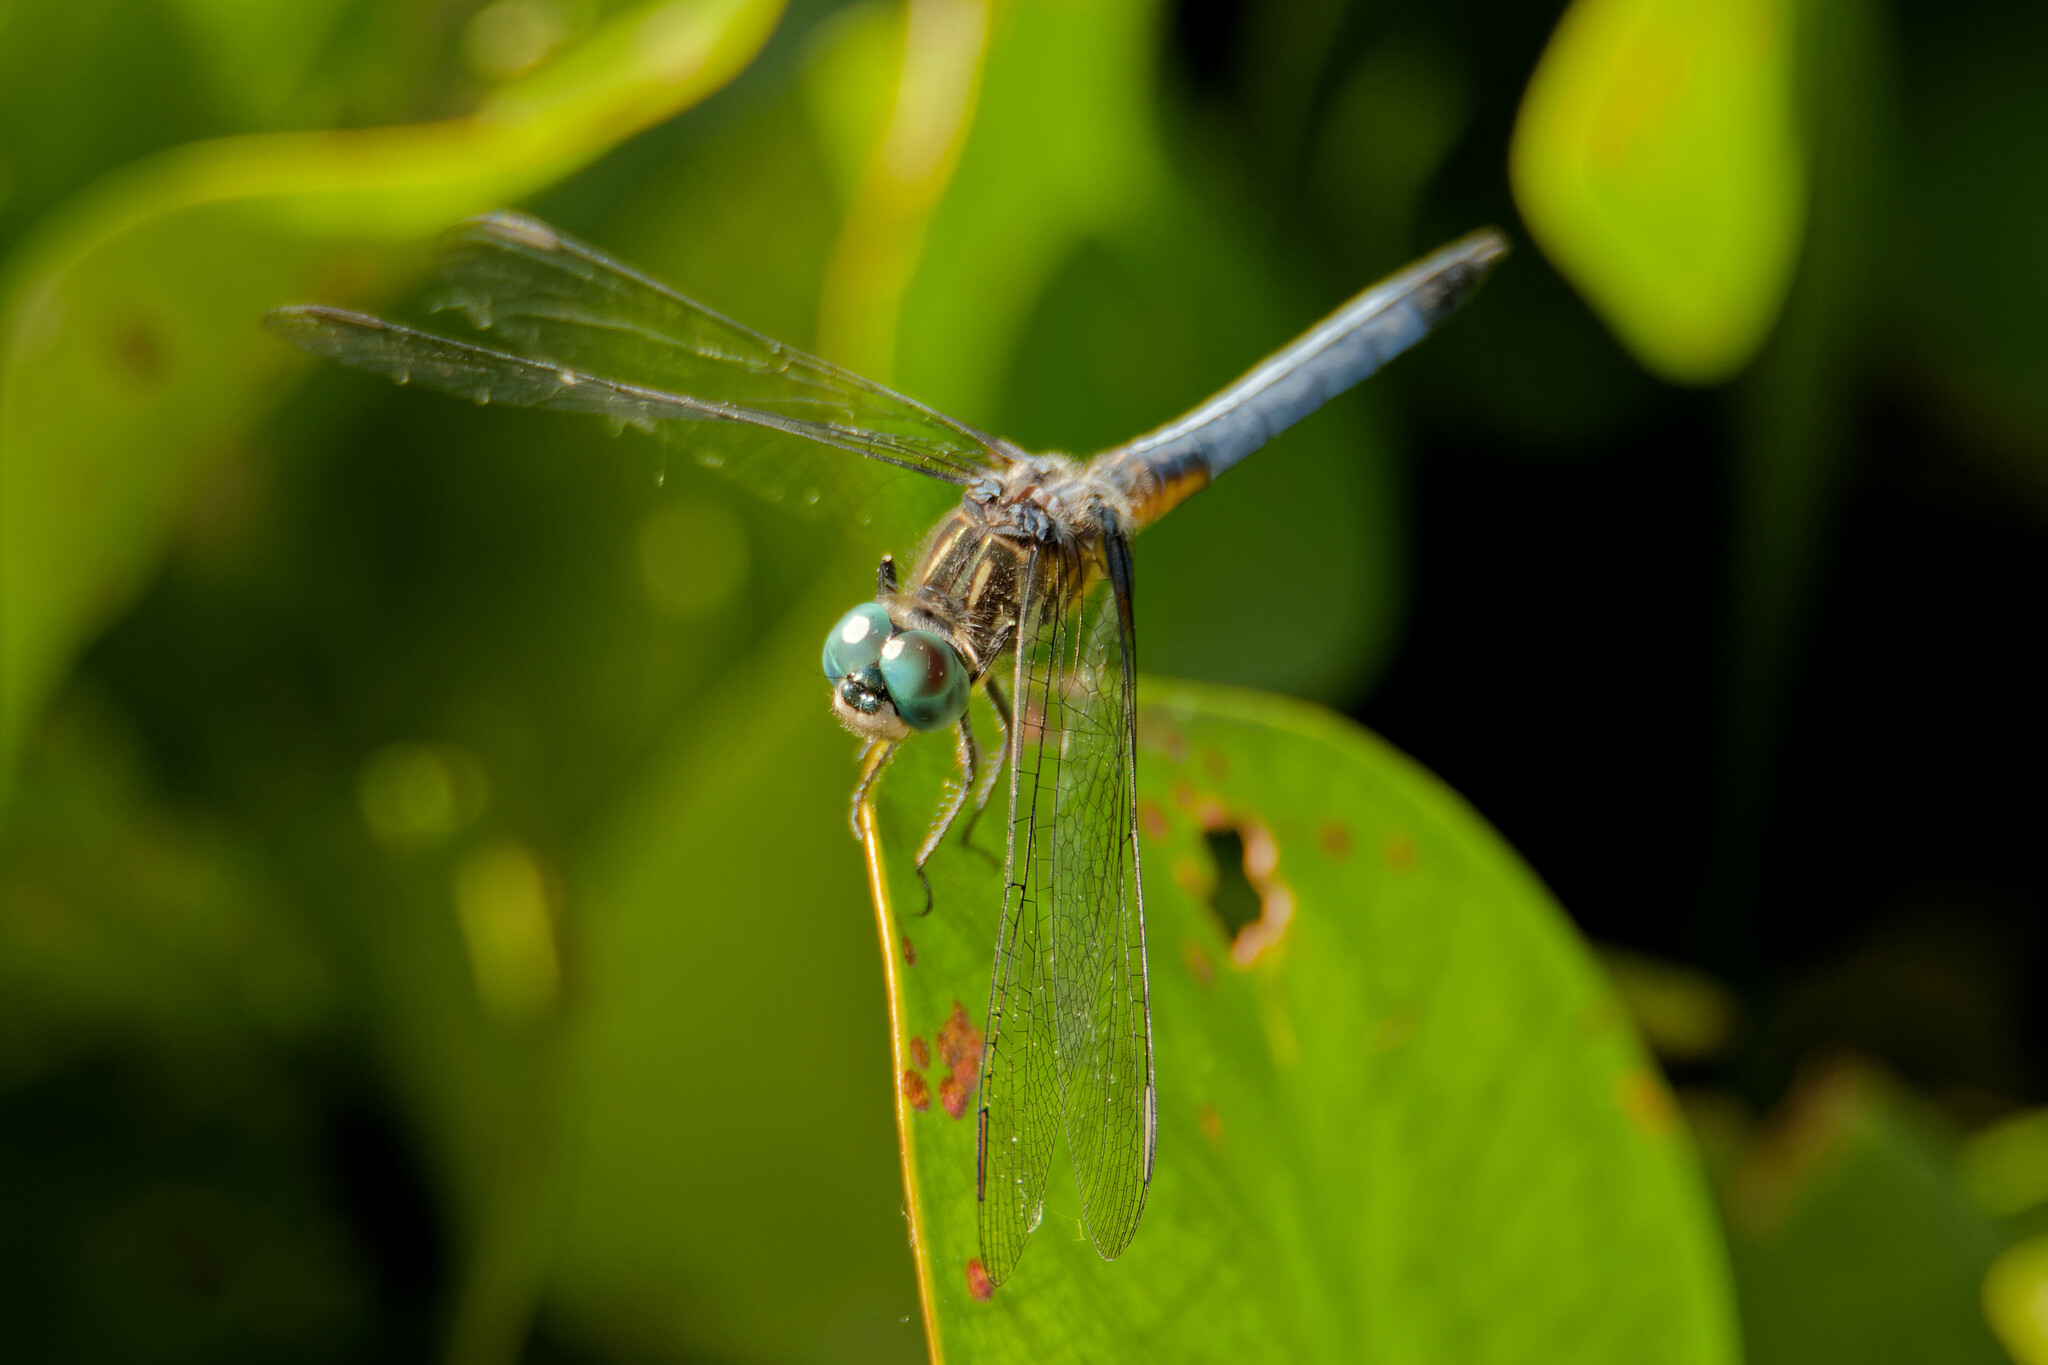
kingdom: Animalia
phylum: Arthropoda
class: Insecta
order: Odonata
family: Libellulidae
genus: Pachydiplax
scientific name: Pachydiplax longipennis
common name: Blue dasher
